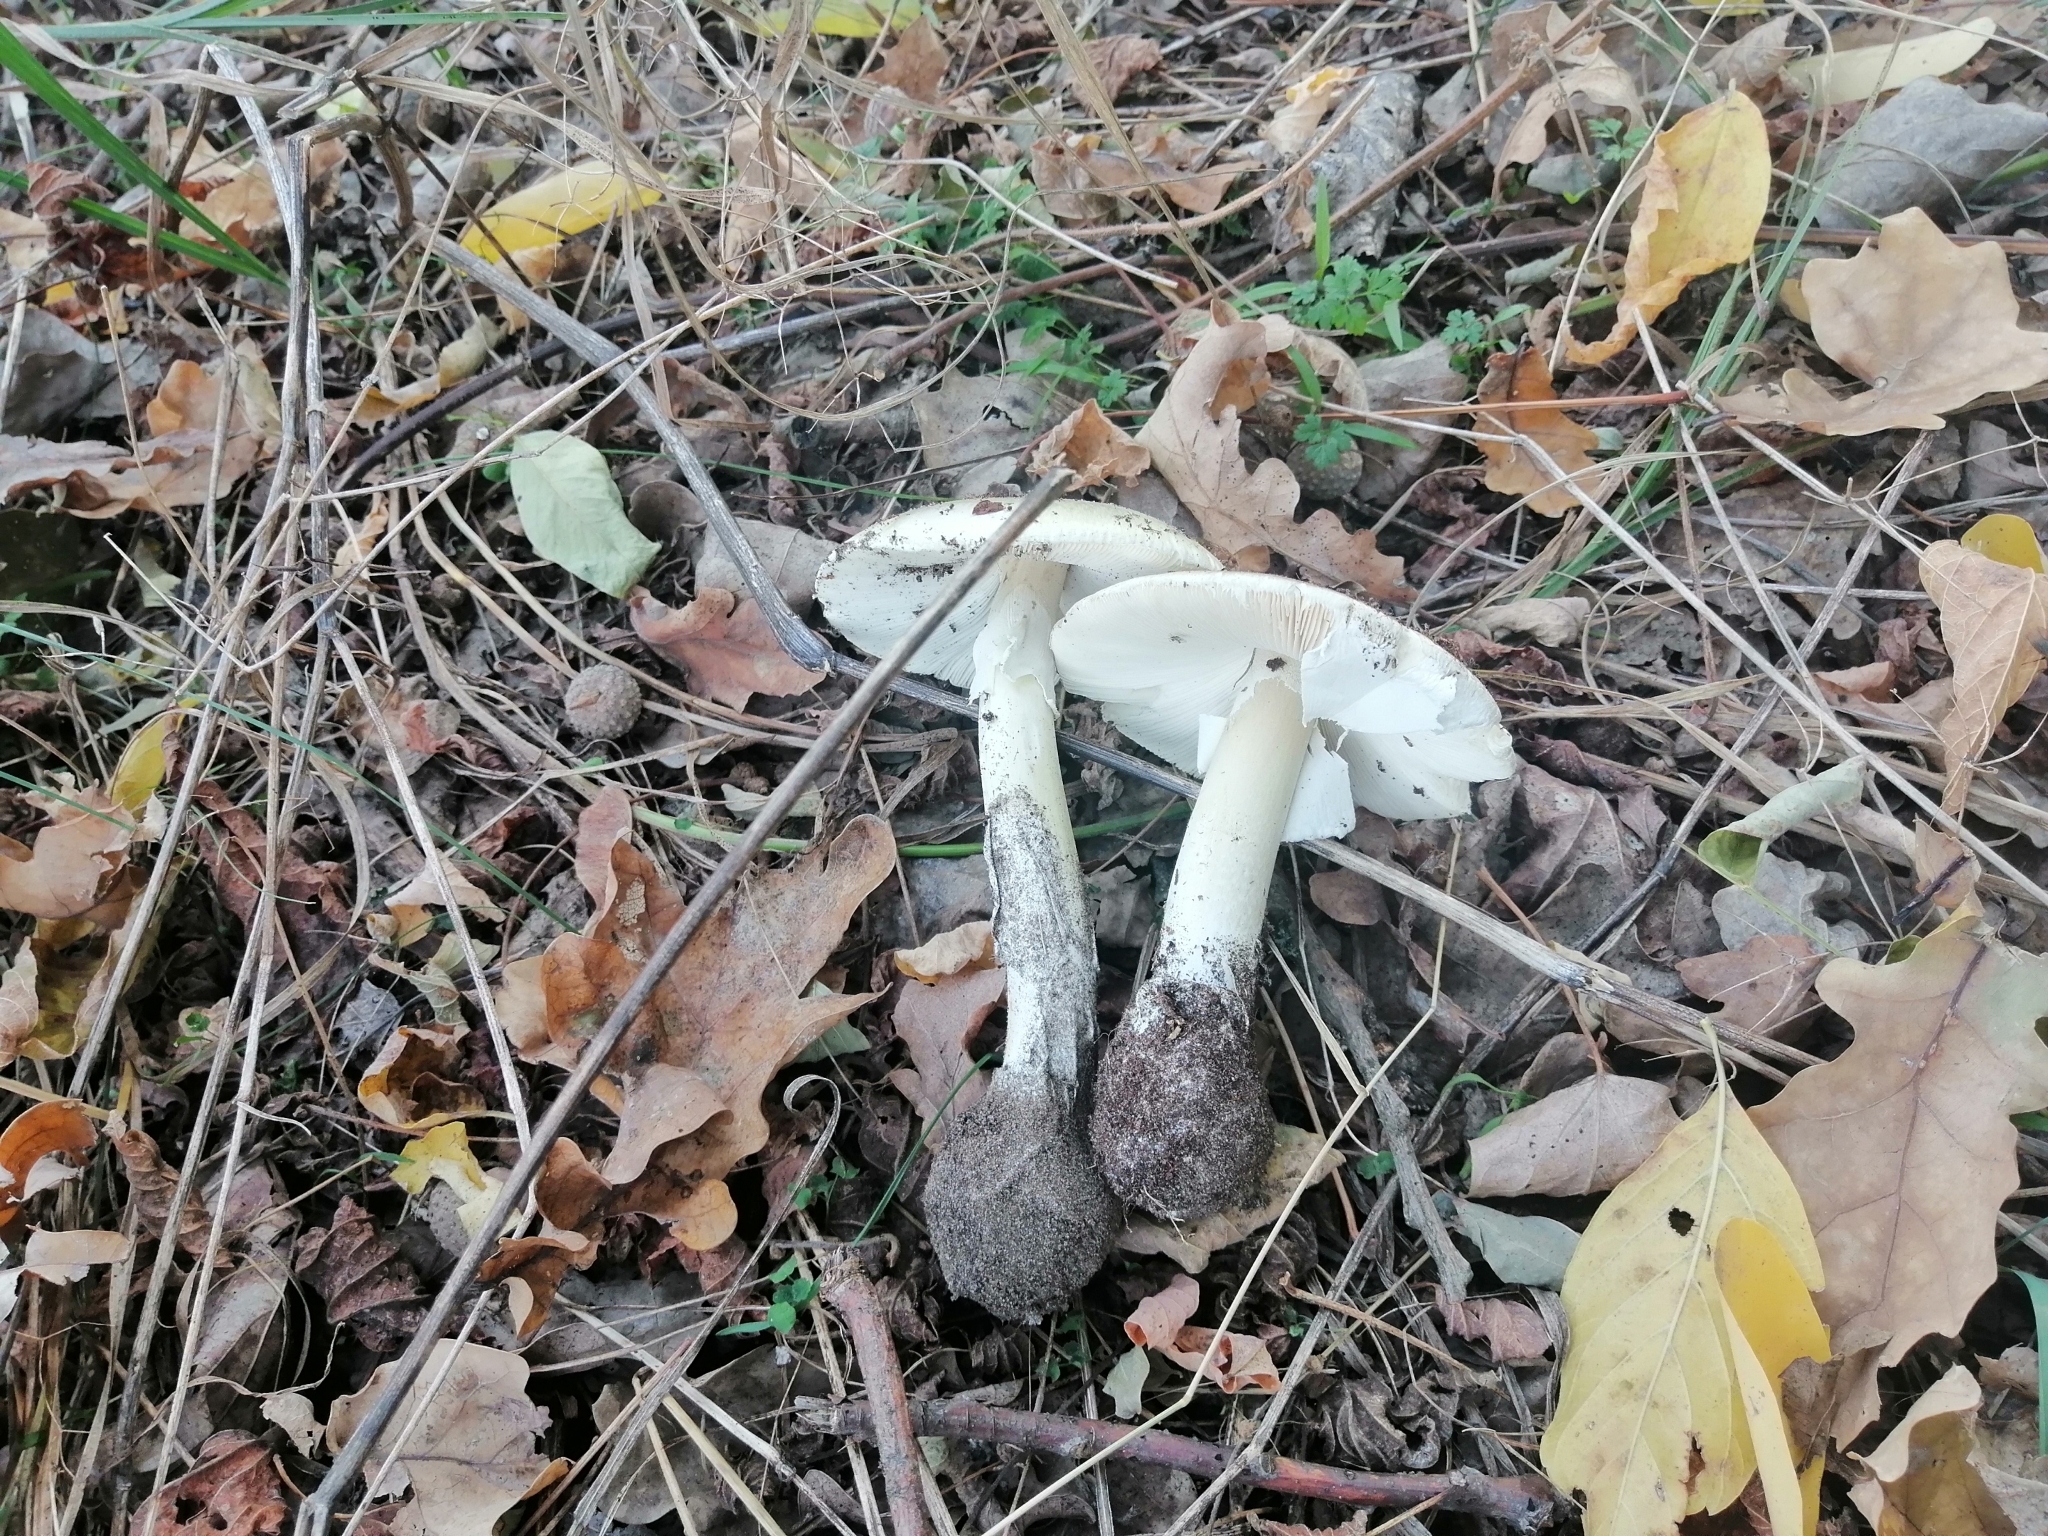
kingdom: Fungi
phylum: Basidiomycota
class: Agaricomycetes
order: Agaricales
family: Amanitaceae
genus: Amanita
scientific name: Amanita phalloides
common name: Death cap
